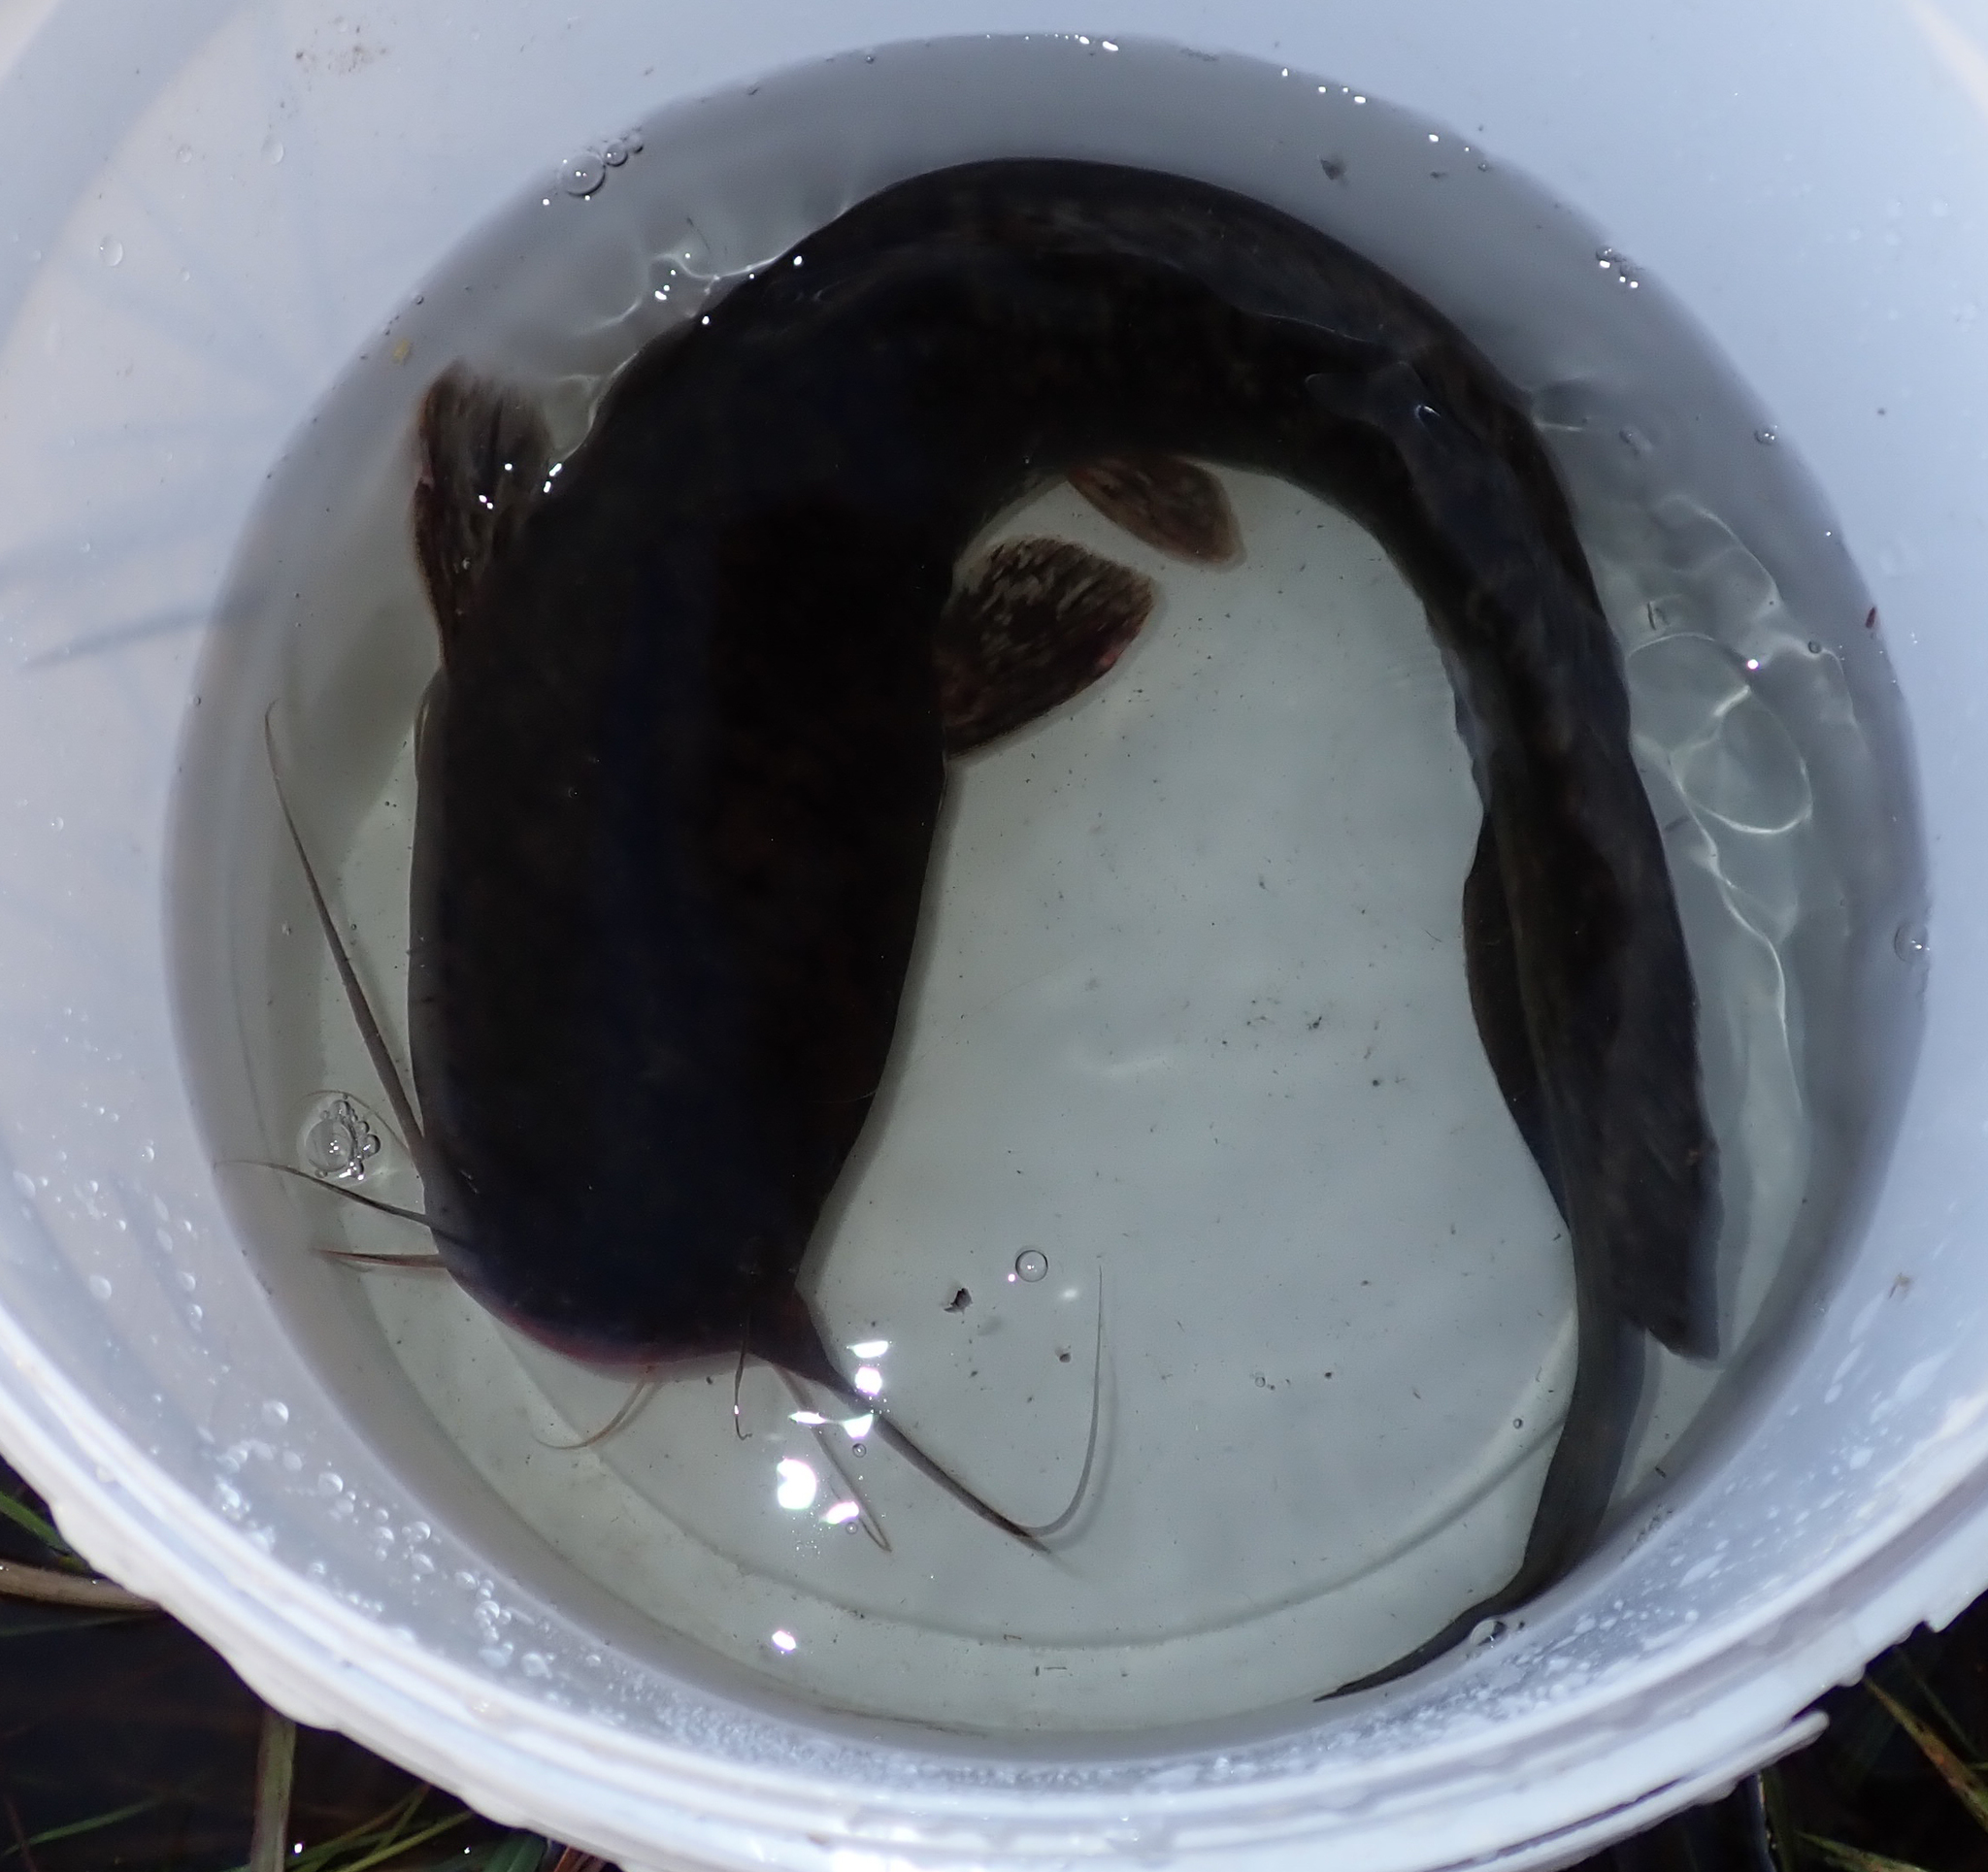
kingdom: Animalia
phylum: Chordata
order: Siluriformes
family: Clariidae
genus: Clarias
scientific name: Clarias gariepinus
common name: African catfish
